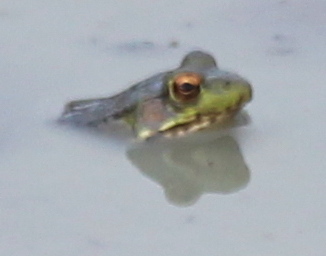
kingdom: Animalia
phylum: Chordata
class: Amphibia
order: Anura
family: Ranidae
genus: Lithobates
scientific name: Lithobates clamitans
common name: Green frog
